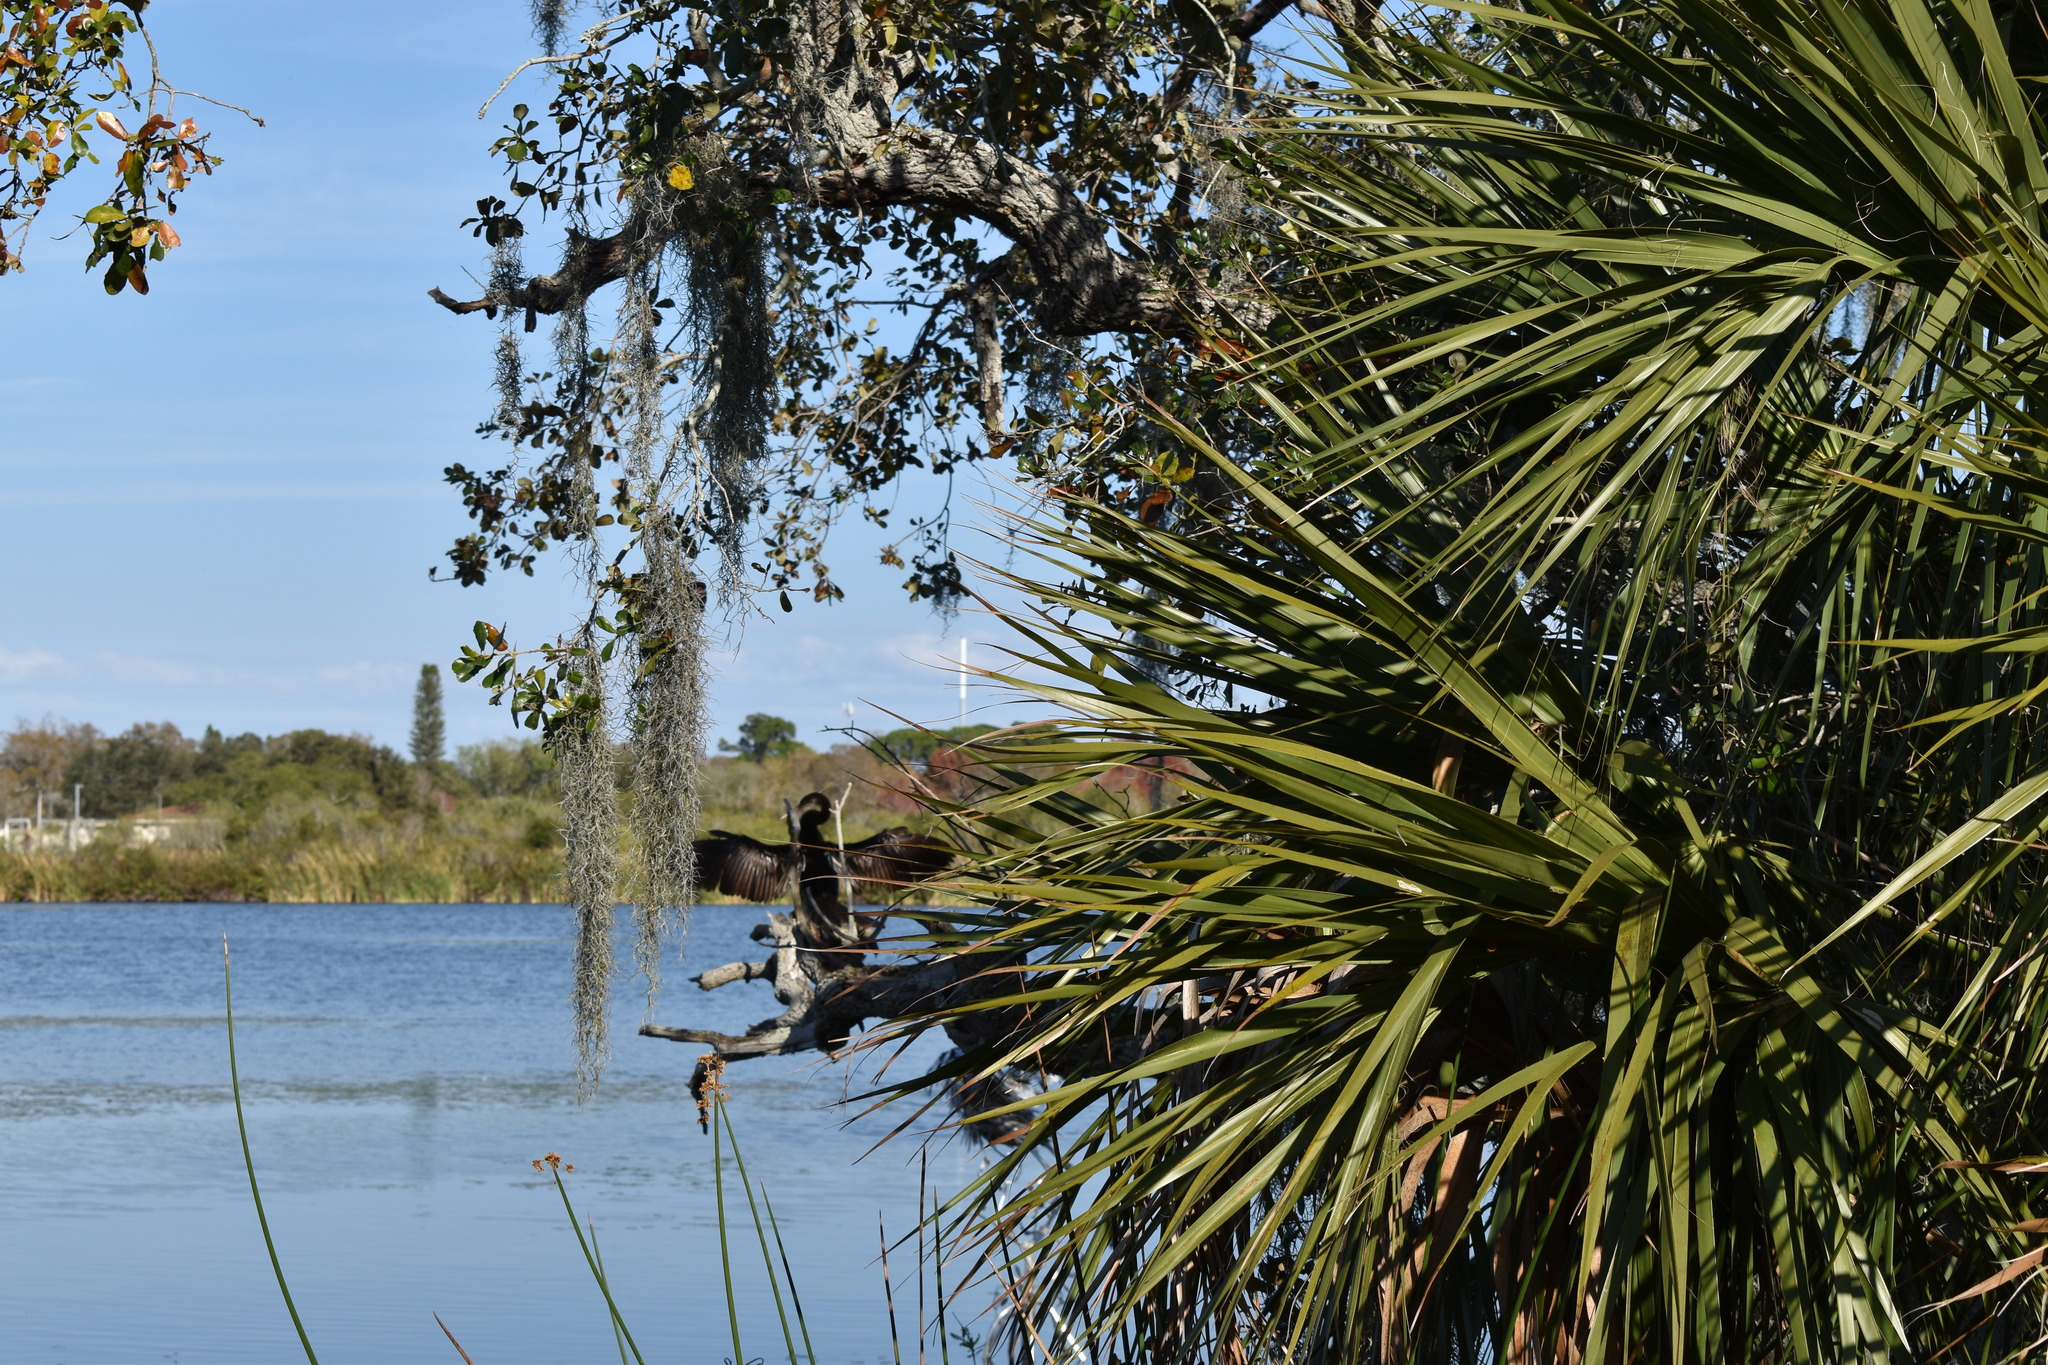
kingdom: Animalia
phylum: Chordata
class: Aves
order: Suliformes
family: Anhingidae
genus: Anhinga
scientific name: Anhinga anhinga
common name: Anhinga
